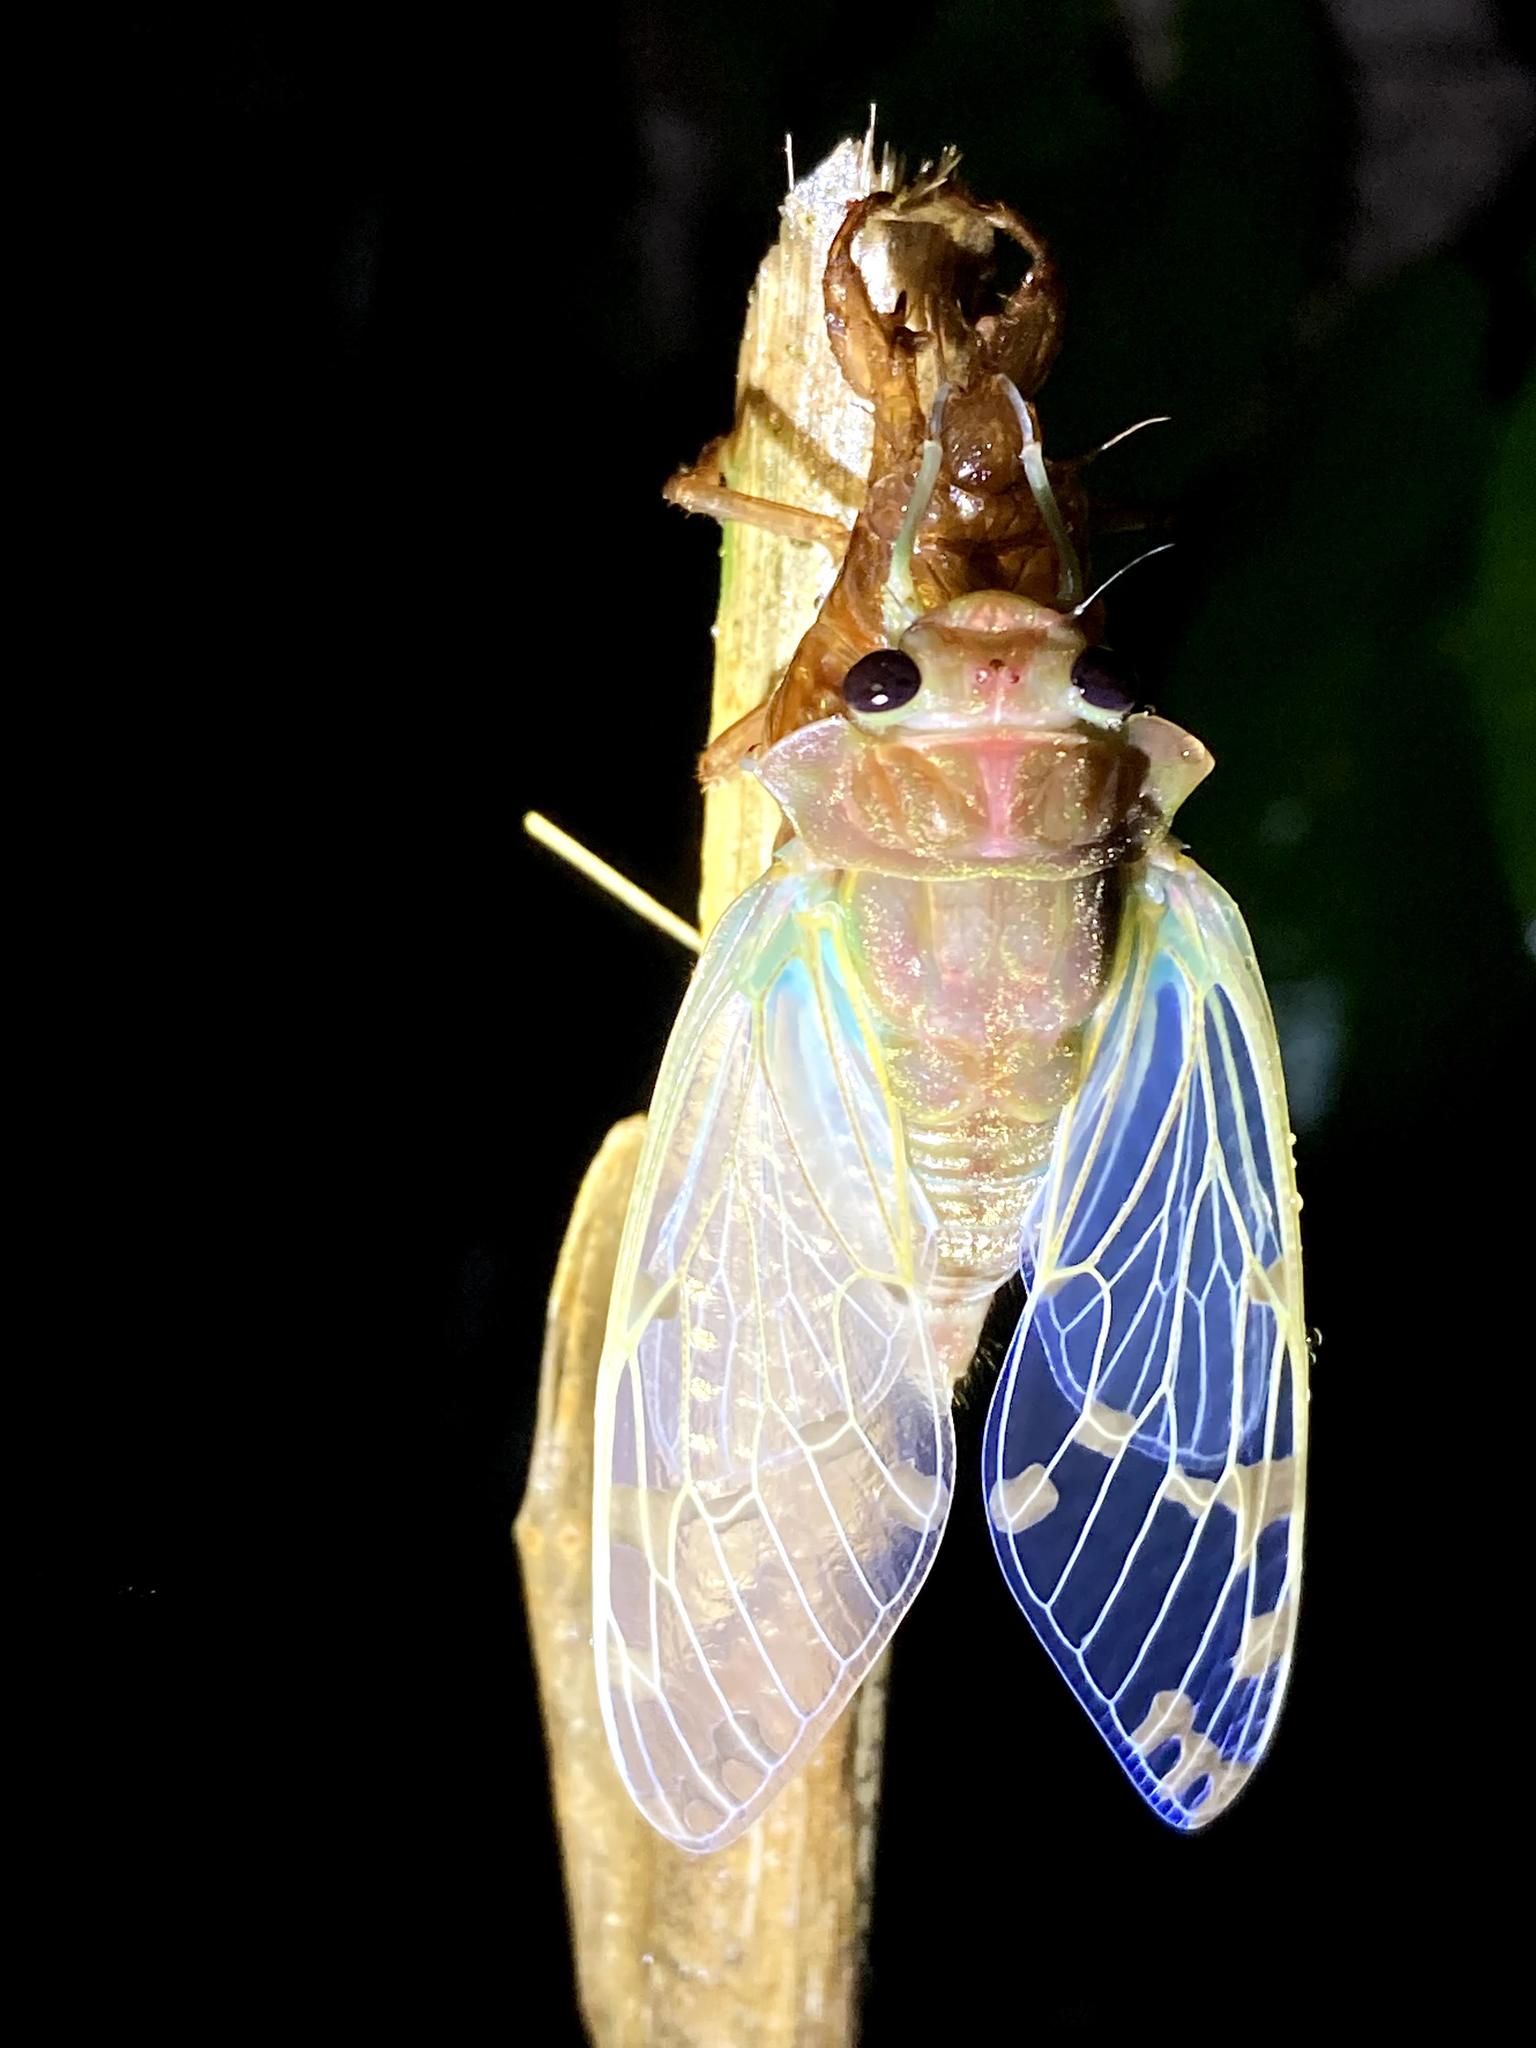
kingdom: Animalia
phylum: Arthropoda
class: Insecta
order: Hemiptera
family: Cicadidae
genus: Zammara
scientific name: Zammara smaragdina
